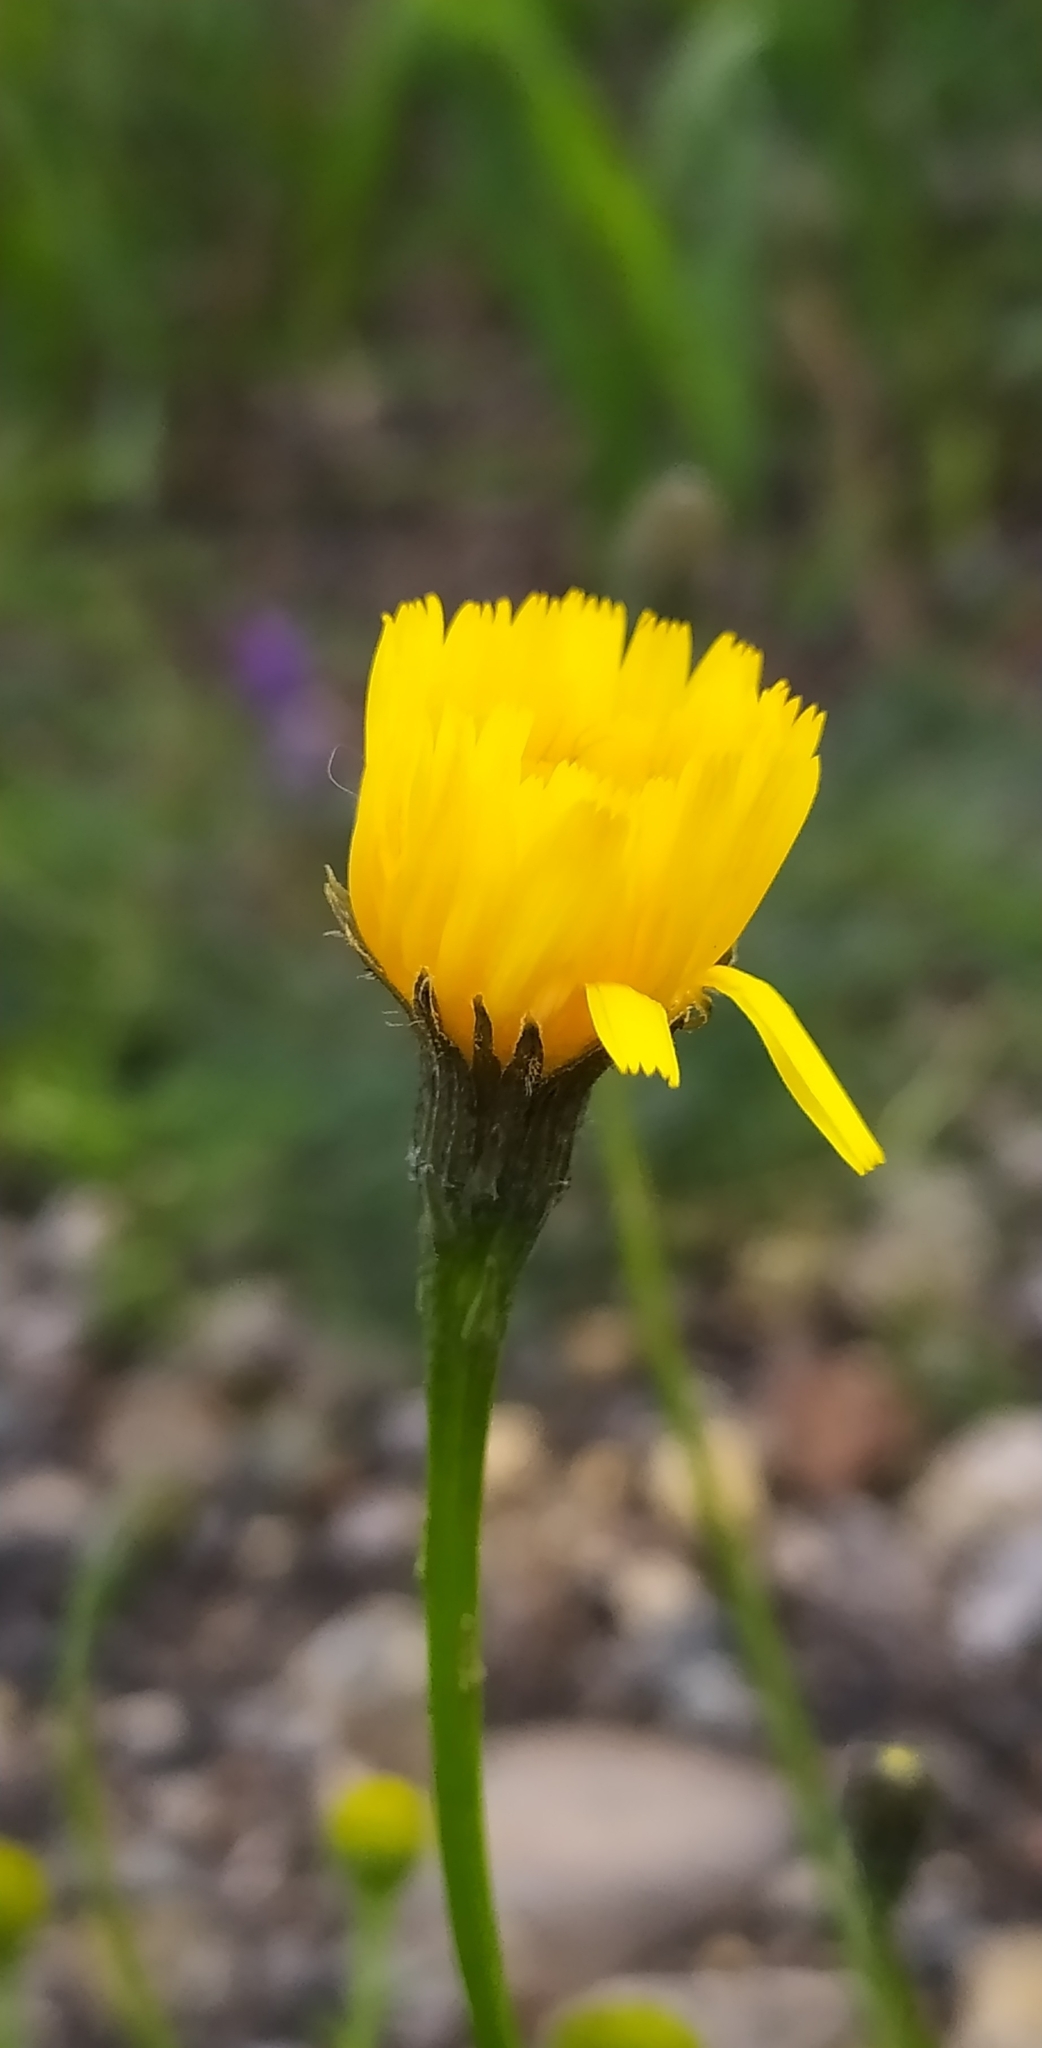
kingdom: Plantae
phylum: Tracheophyta
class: Magnoliopsida
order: Asterales
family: Asteraceae
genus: Scorzoneroides
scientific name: Scorzoneroides autumnalis
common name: Autumn hawkbit
